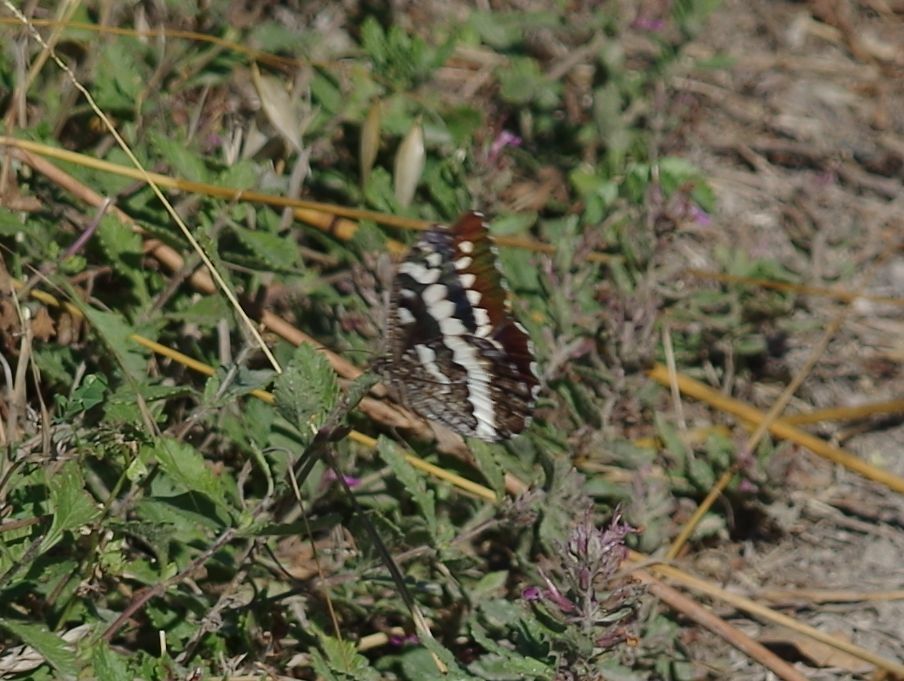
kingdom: Animalia
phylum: Arthropoda
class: Insecta
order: Lepidoptera
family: Lycaenidae
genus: Loweia
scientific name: Loweia tityrus
